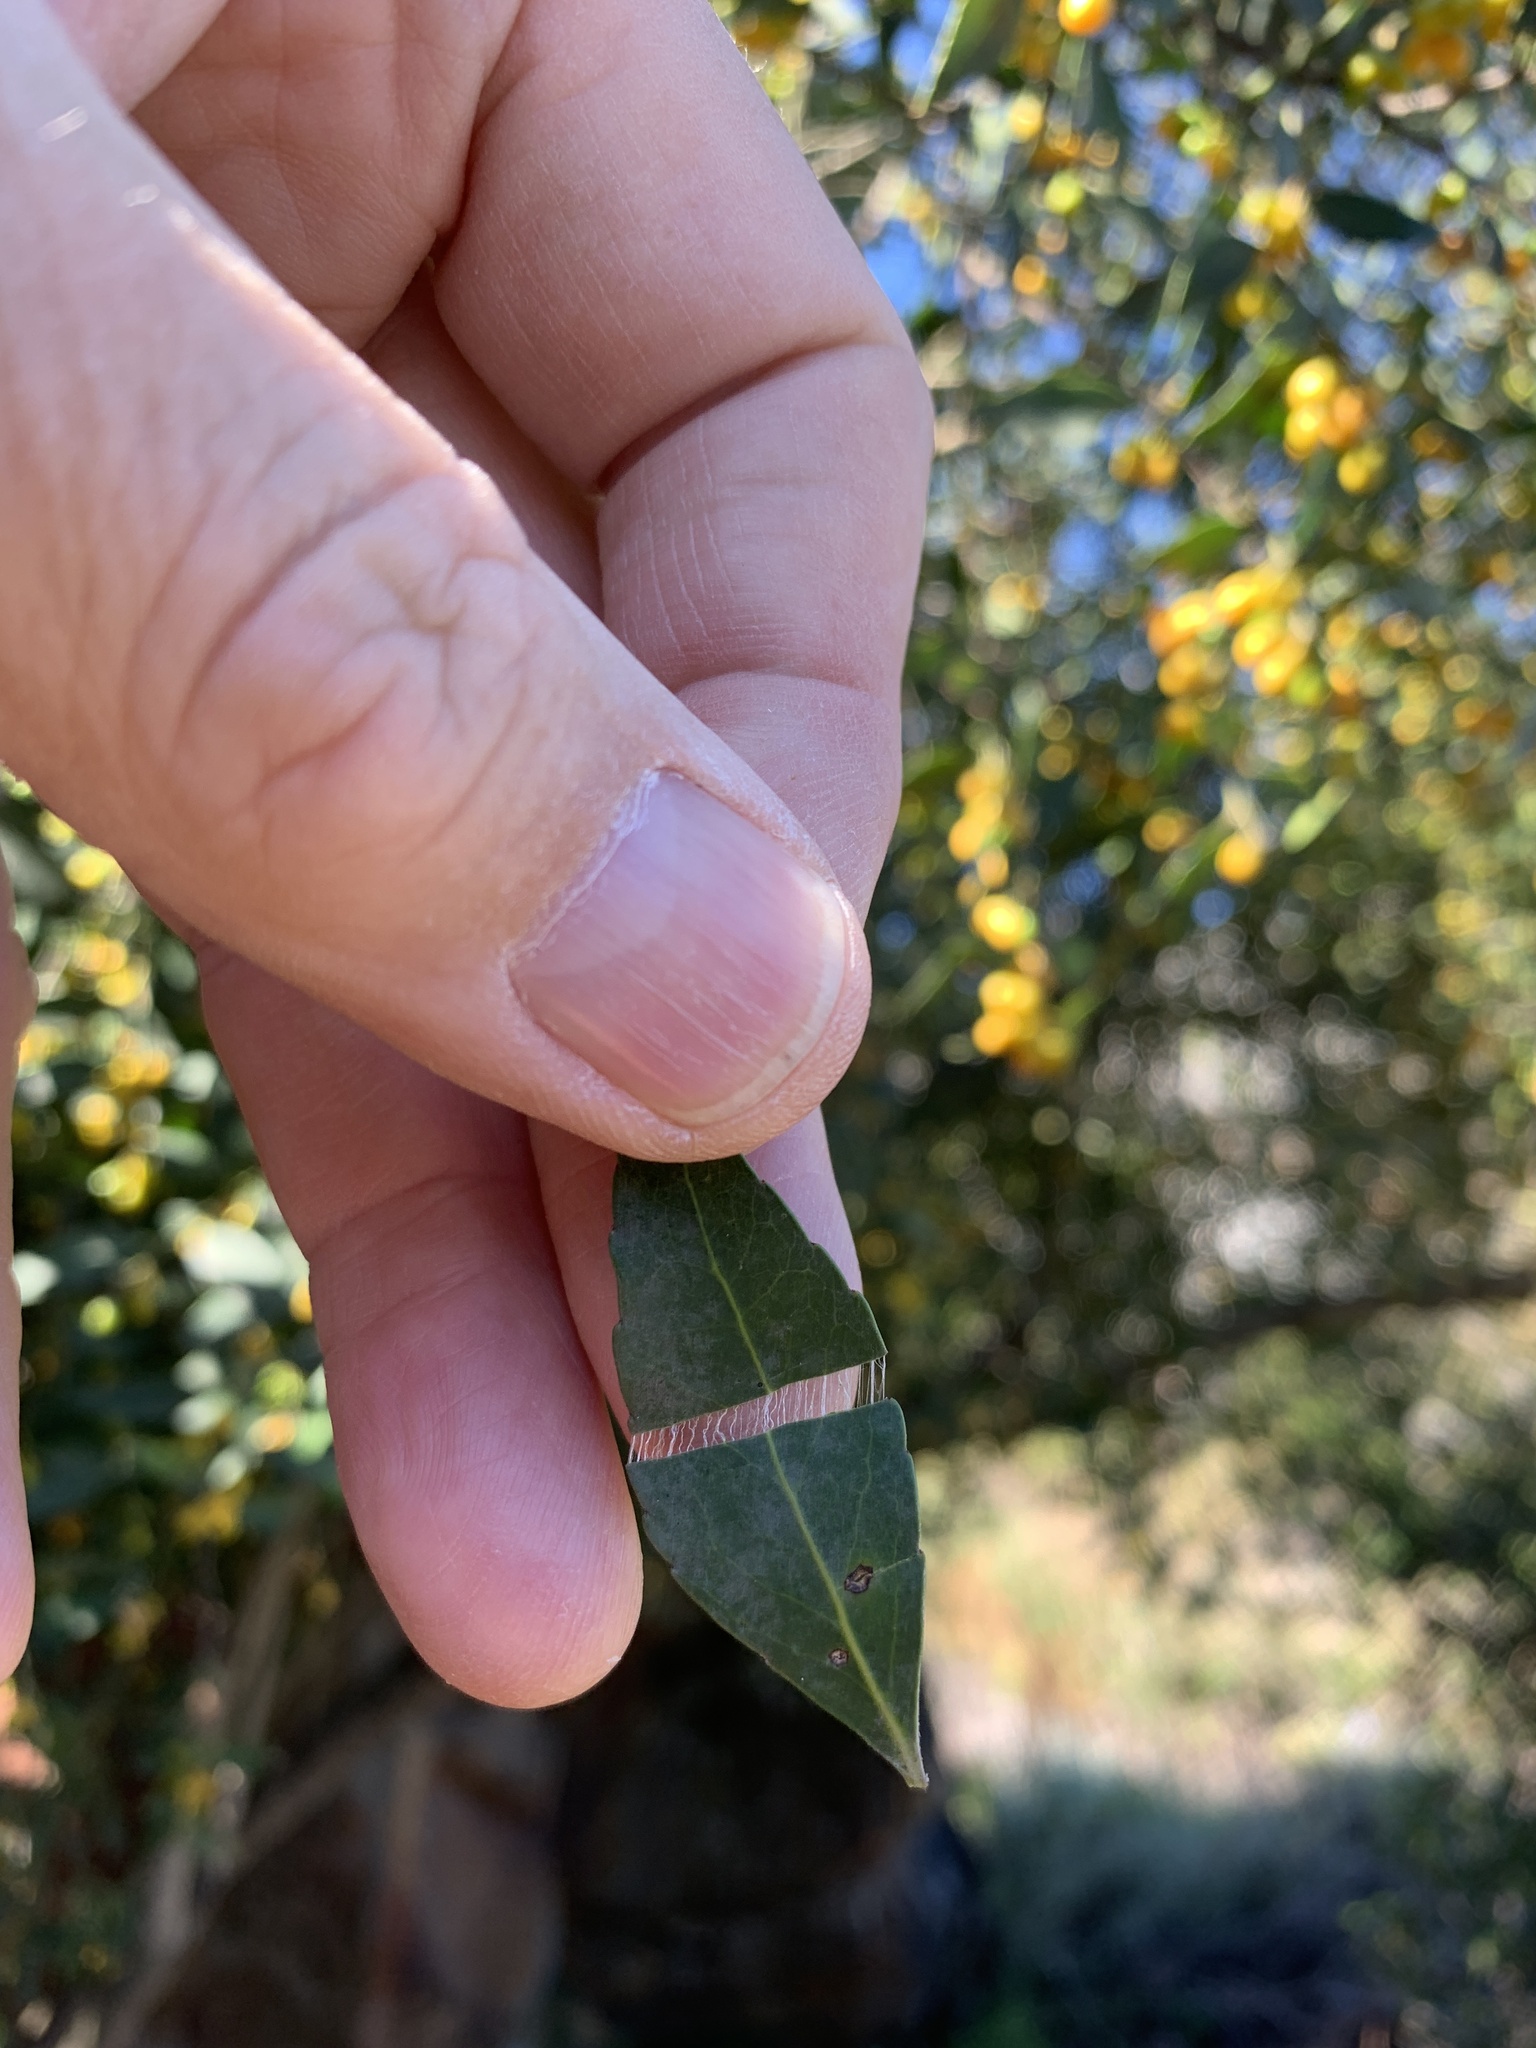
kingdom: Plantae
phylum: Tracheophyta
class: Magnoliopsida
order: Celastrales
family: Celastraceae
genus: Gymnosporia
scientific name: Gymnosporia acuminata
